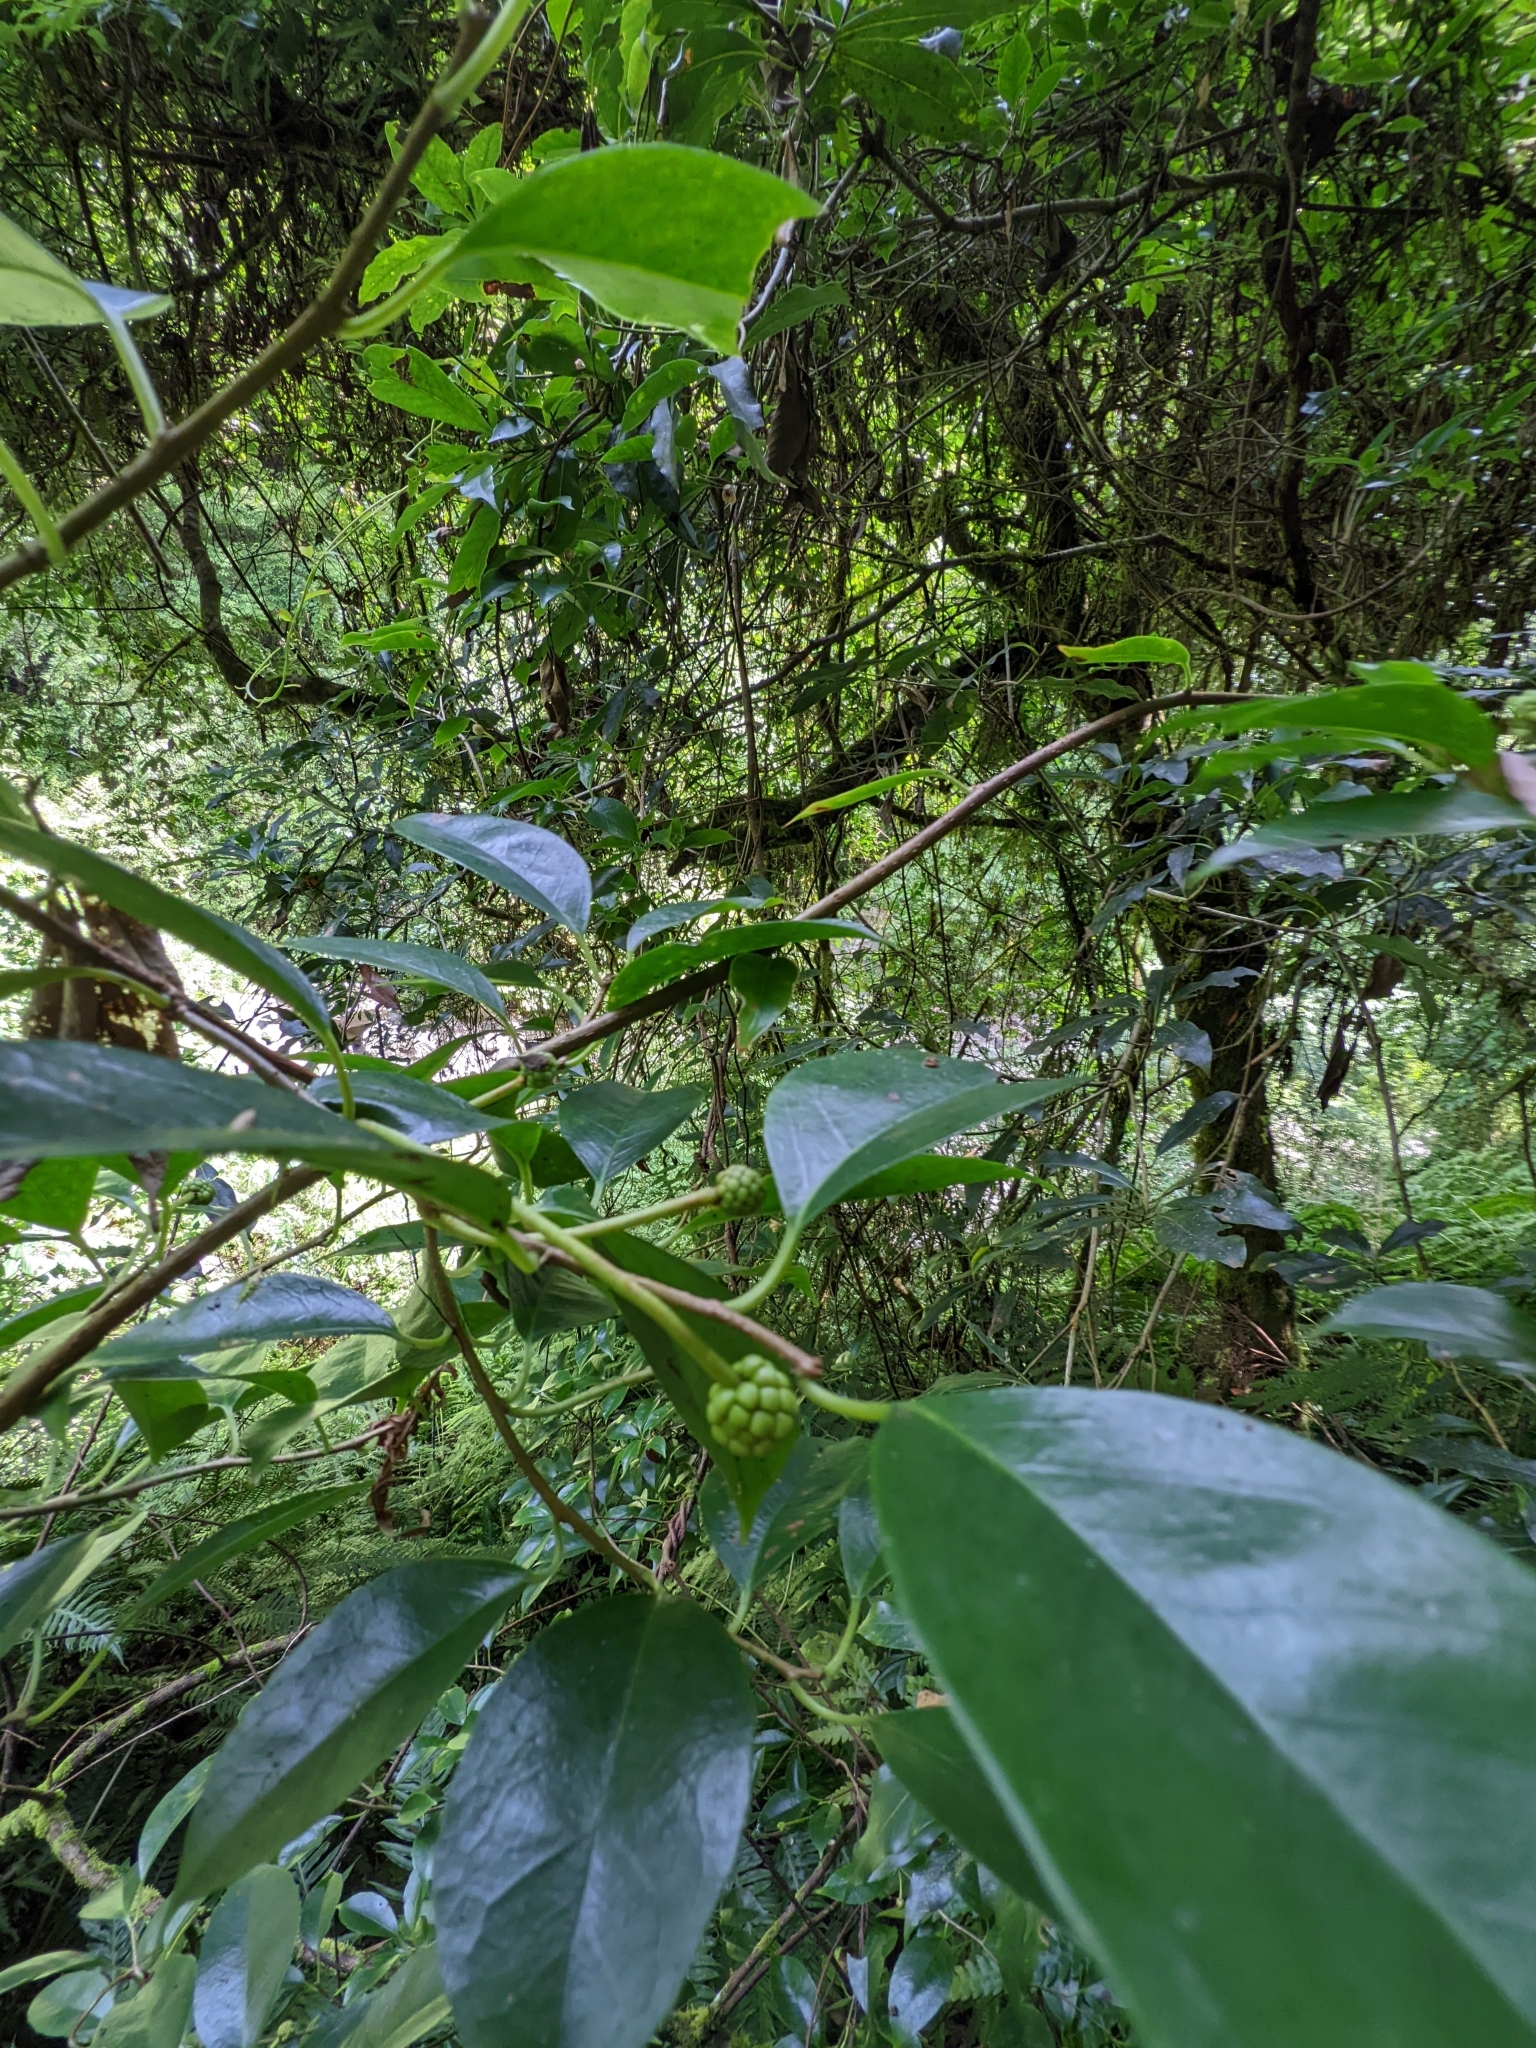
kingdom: Plantae
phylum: Tracheophyta
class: Magnoliopsida
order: Austrobaileyales
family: Schisandraceae
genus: Kadsura
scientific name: Kadsura matsudae
